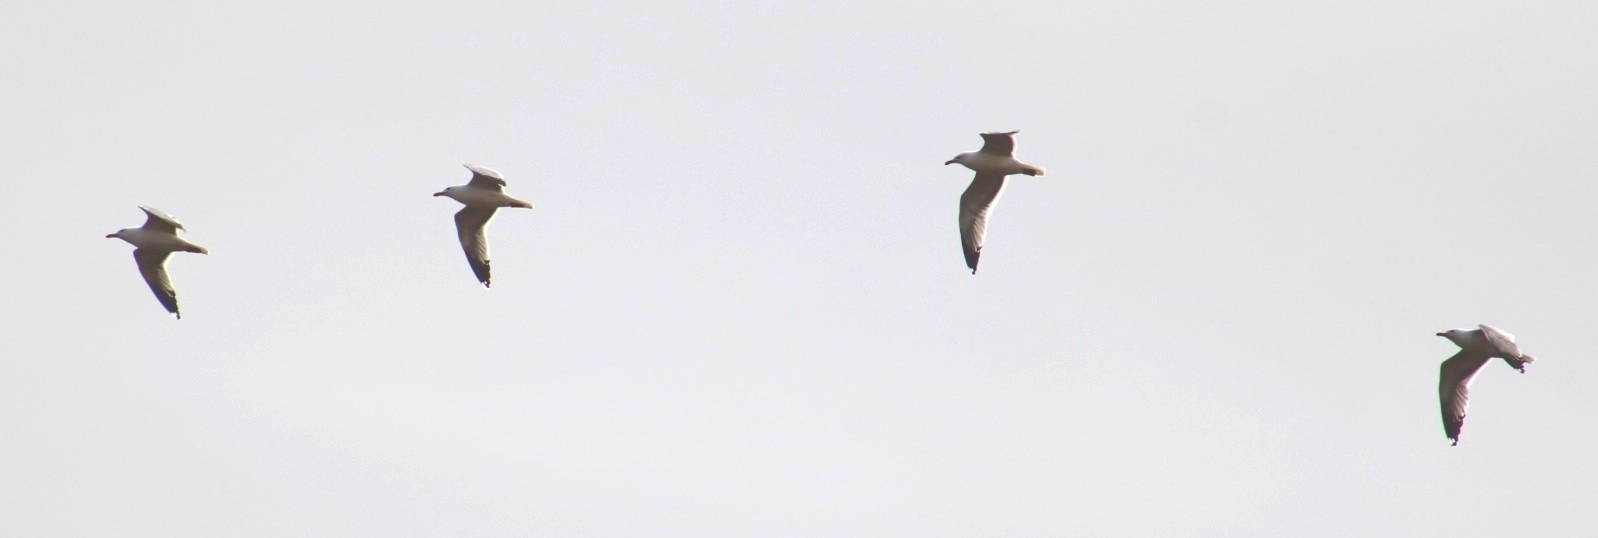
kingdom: Animalia
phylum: Chordata
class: Aves
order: Charadriiformes
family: Laridae
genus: Larus
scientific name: Larus occidentalis
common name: Western gull
